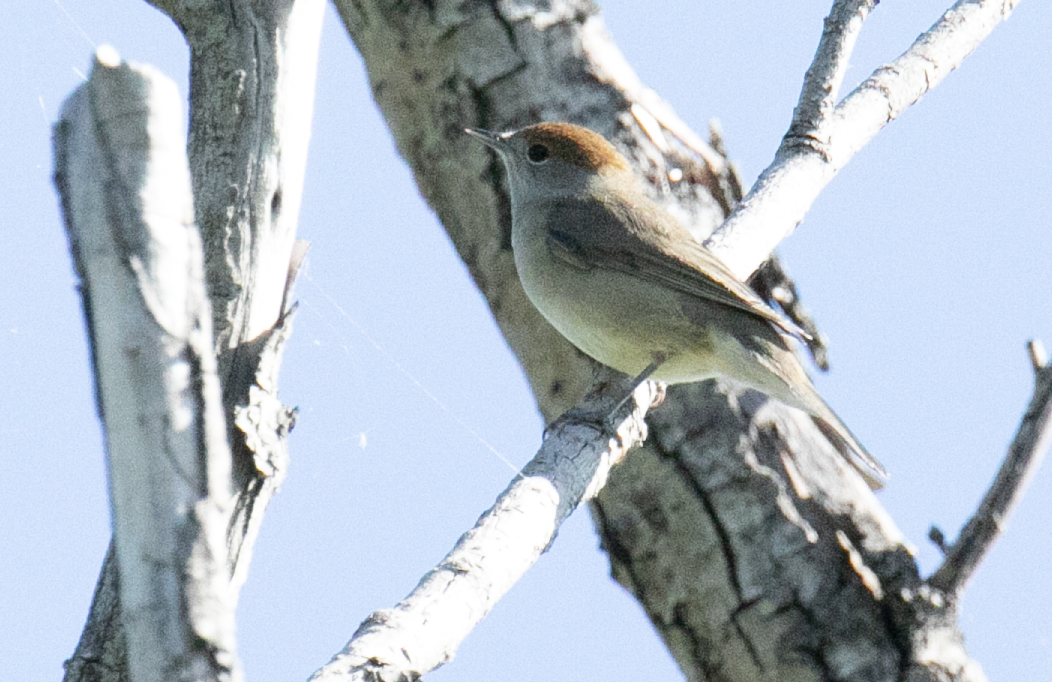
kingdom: Animalia
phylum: Chordata
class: Aves
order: Passeriformes
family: Sylviidae
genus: Sylvia
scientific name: Sylvia atricapilla
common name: Eurasian blackcap
